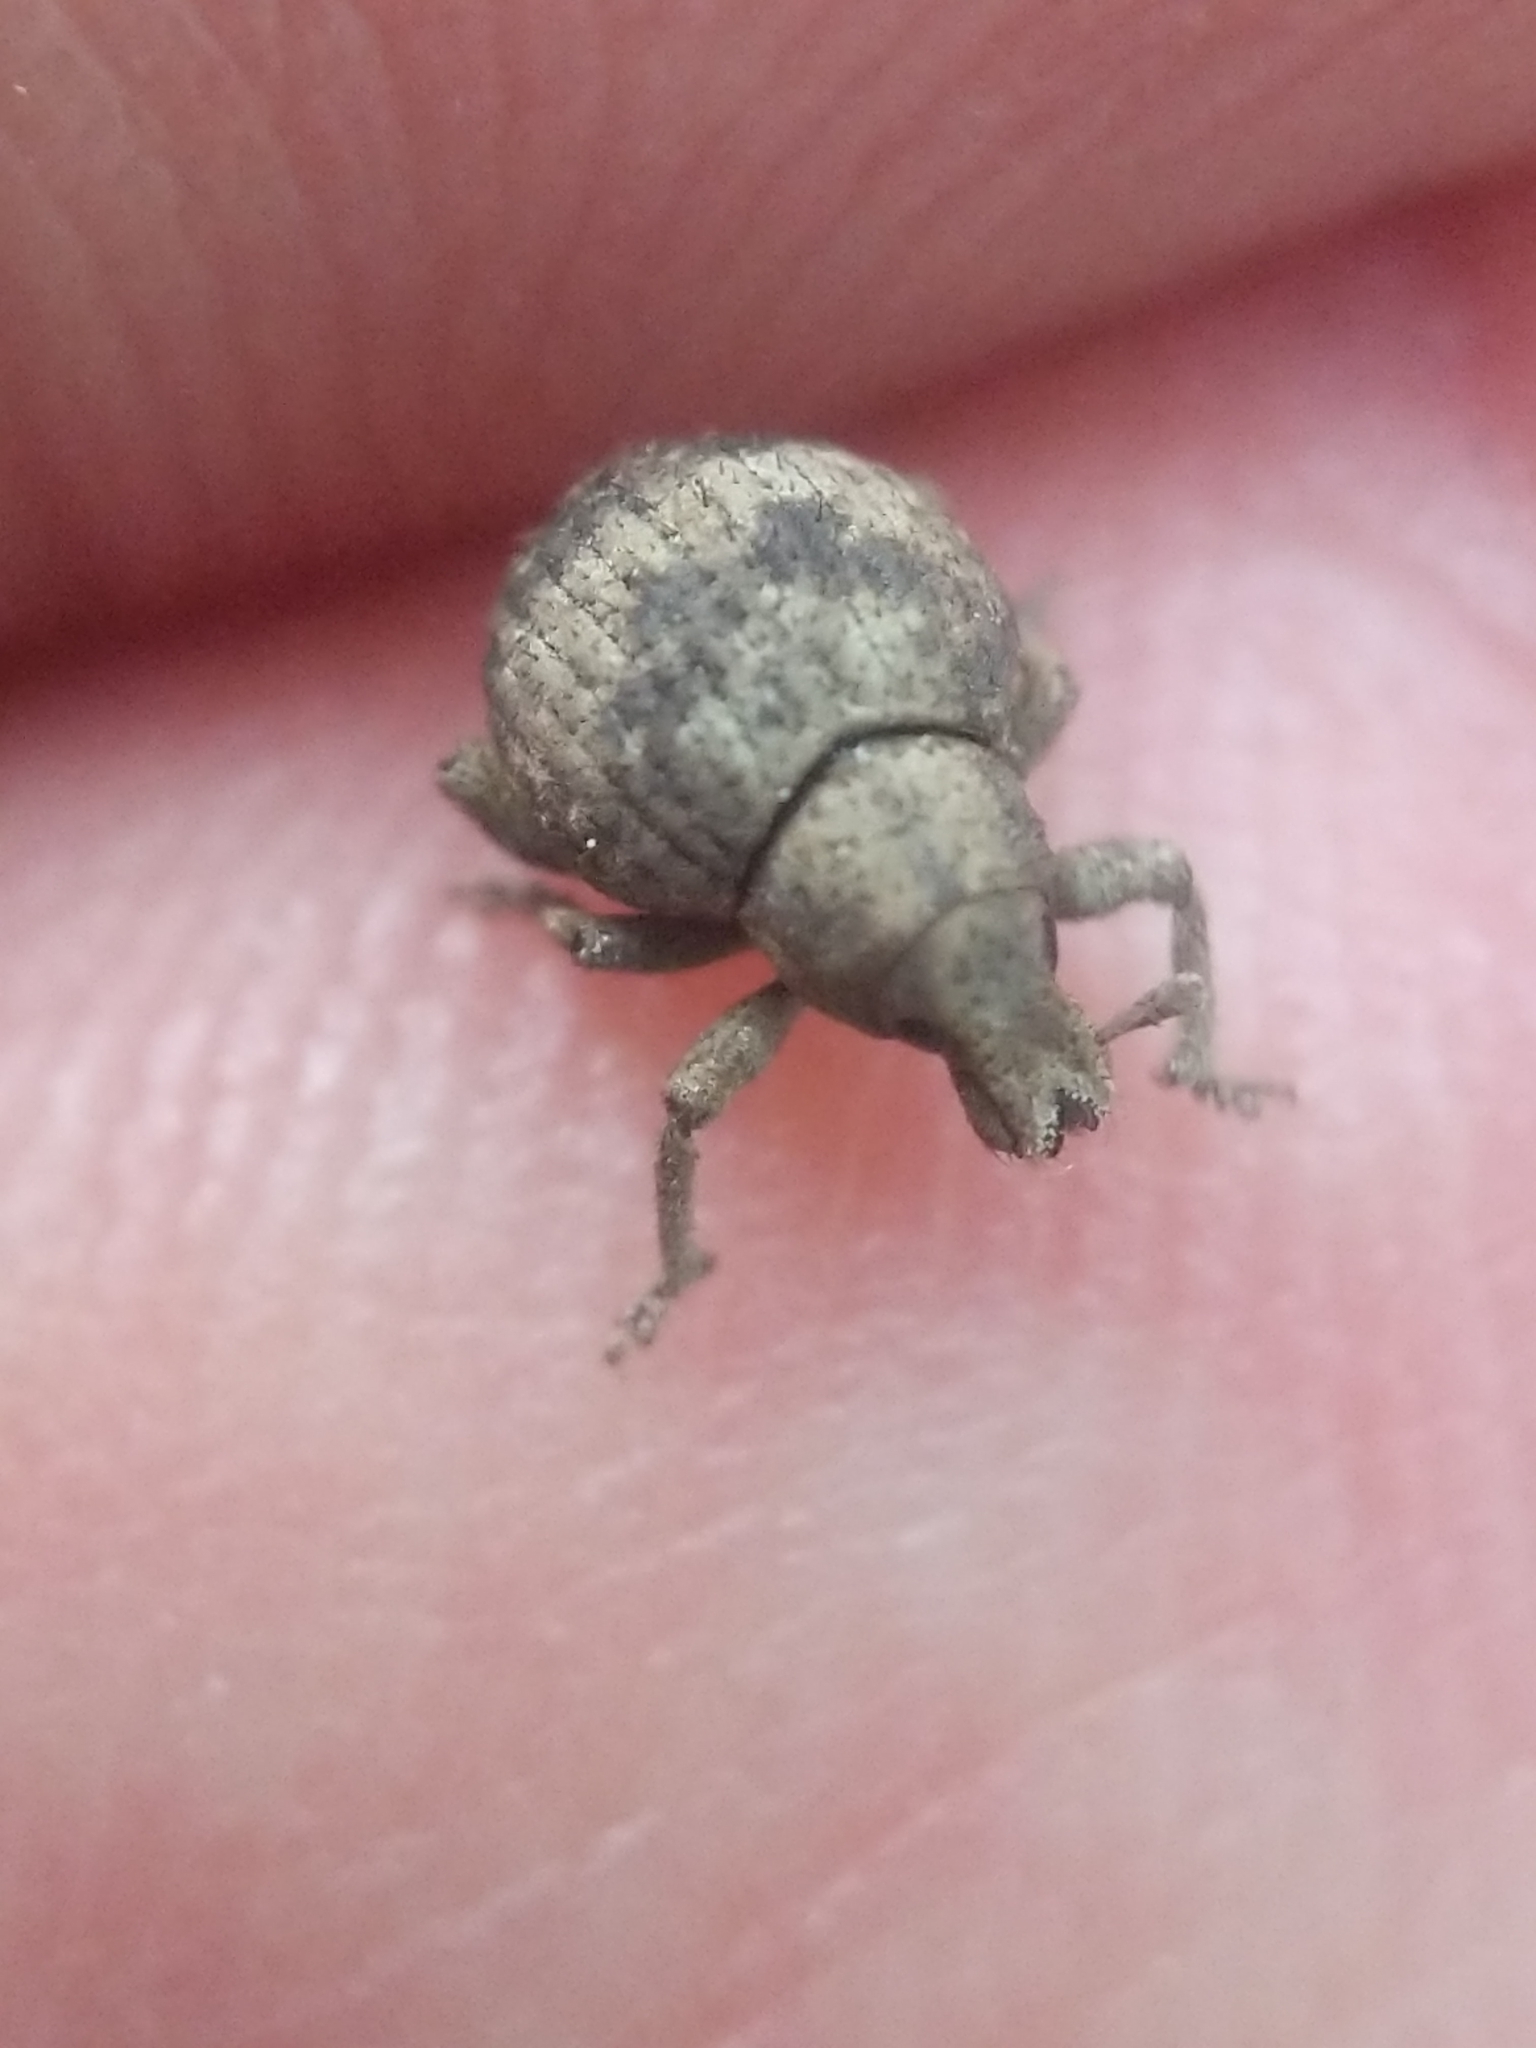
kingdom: Animalia
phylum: Arthropoda
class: Insecta
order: Coleoptera
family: Curculionidae
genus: Pseudocneorhinus
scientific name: Pseudocneorhinus bifasciatus
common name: Two-banded japanese weevil
